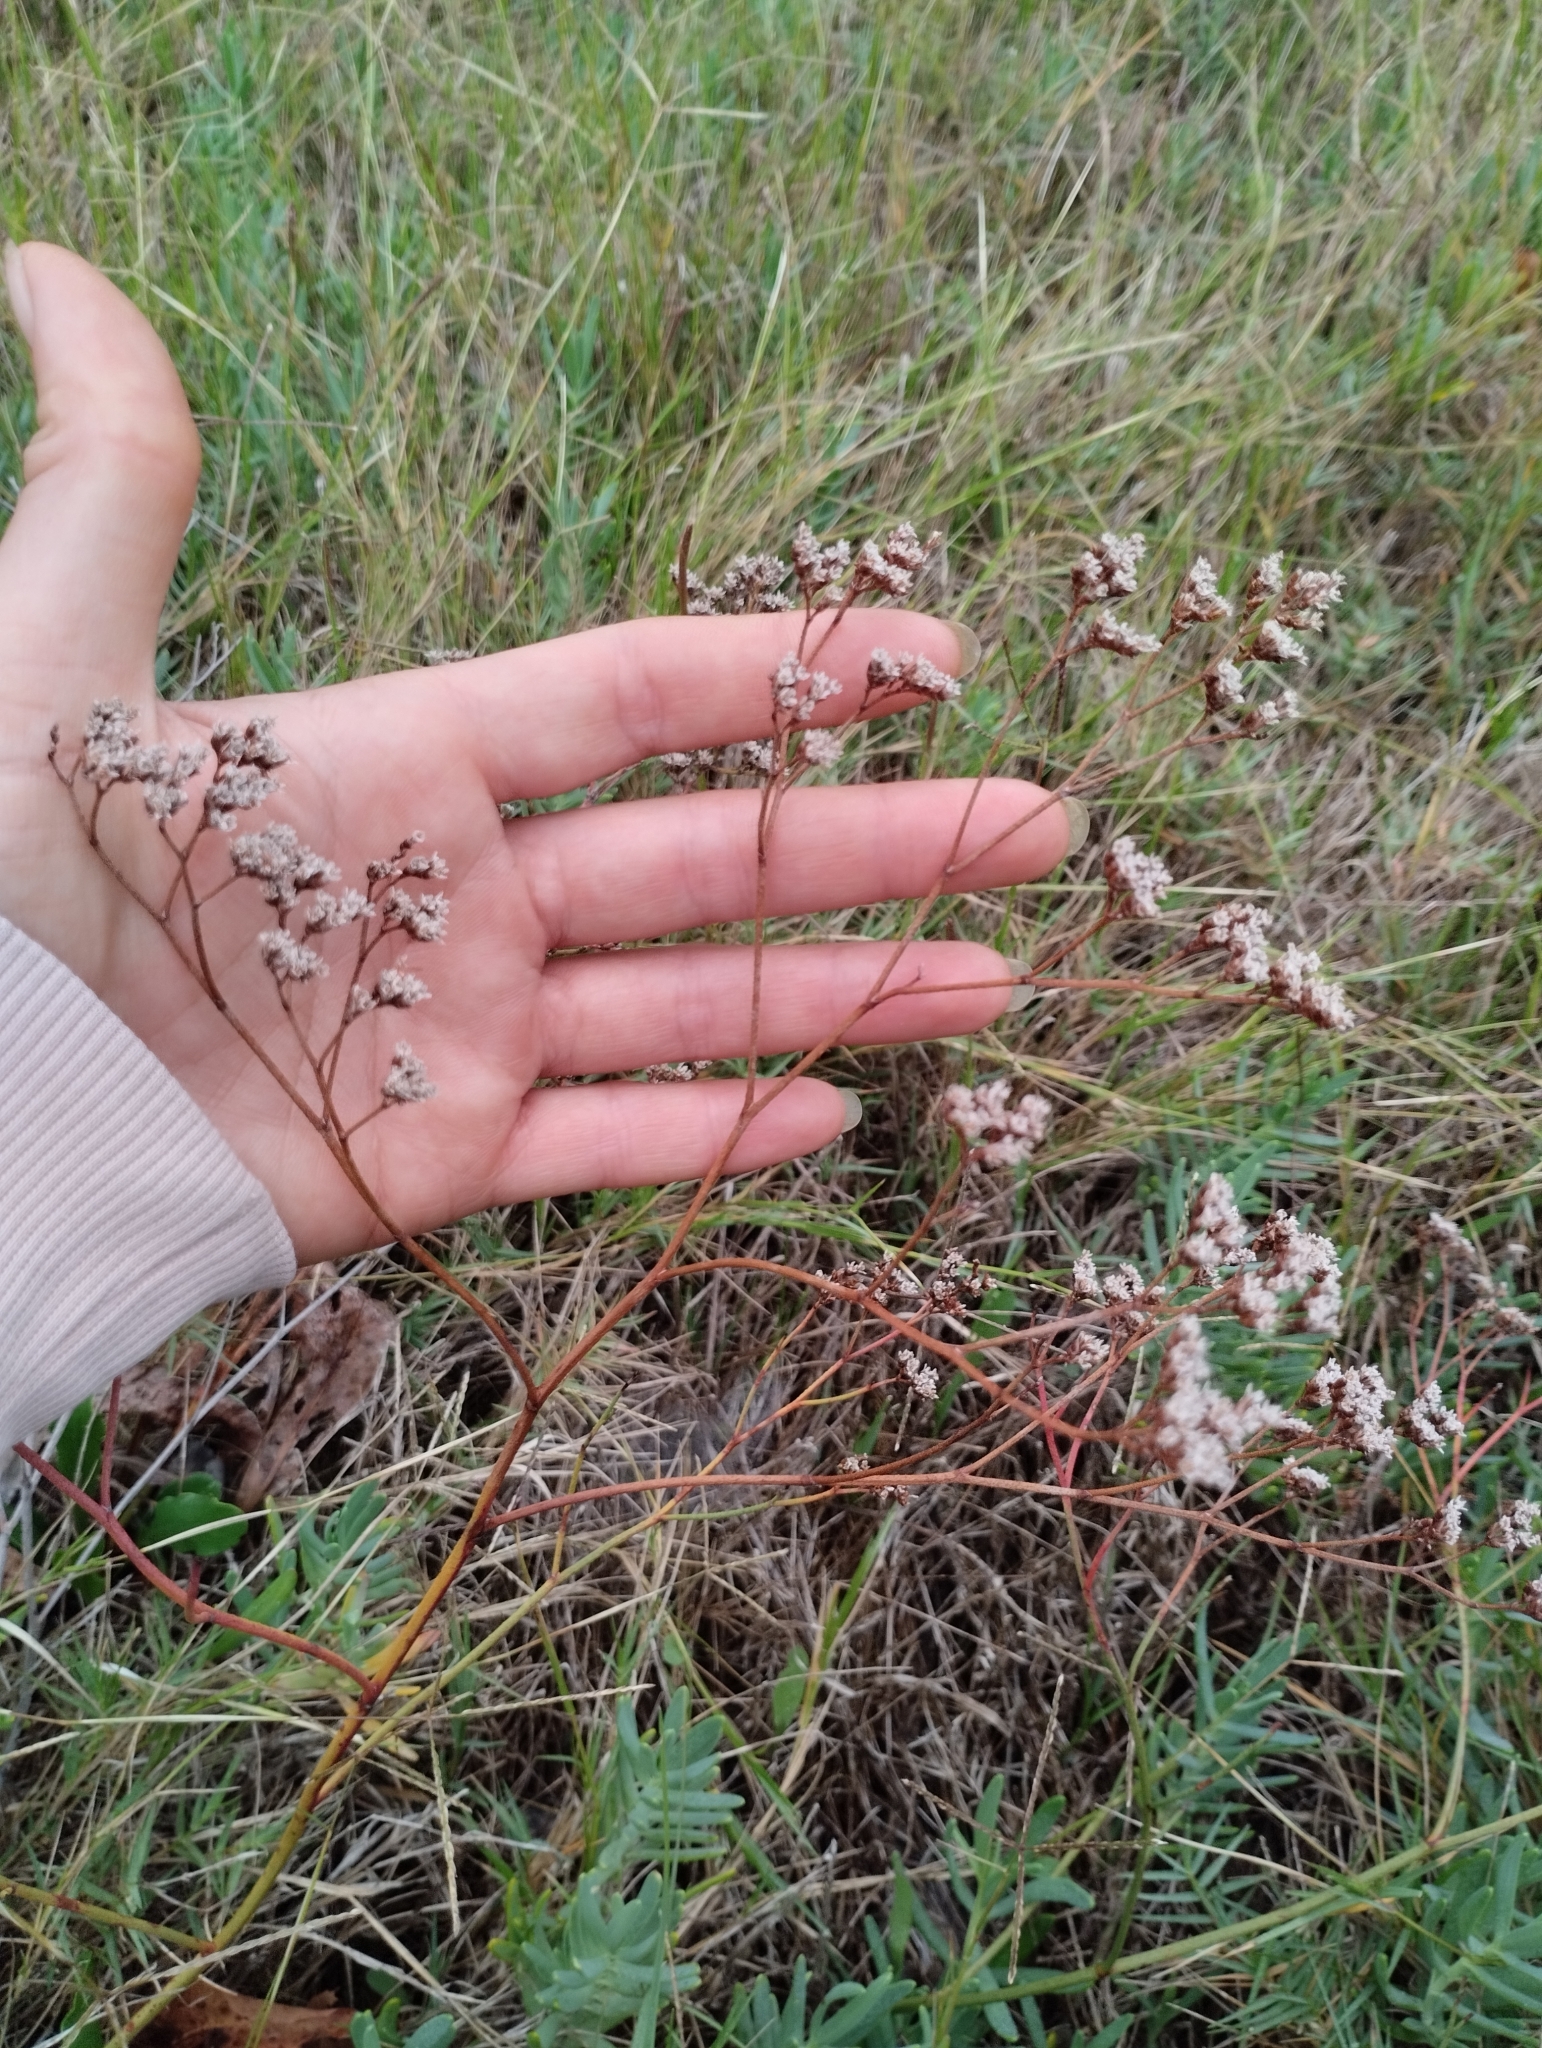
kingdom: Plantae
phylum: Tracheophyta
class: Magnoliopsida
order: Caryophyllales
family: Plumbaginaceae
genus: Limonium
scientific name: Limonium brasiliense
